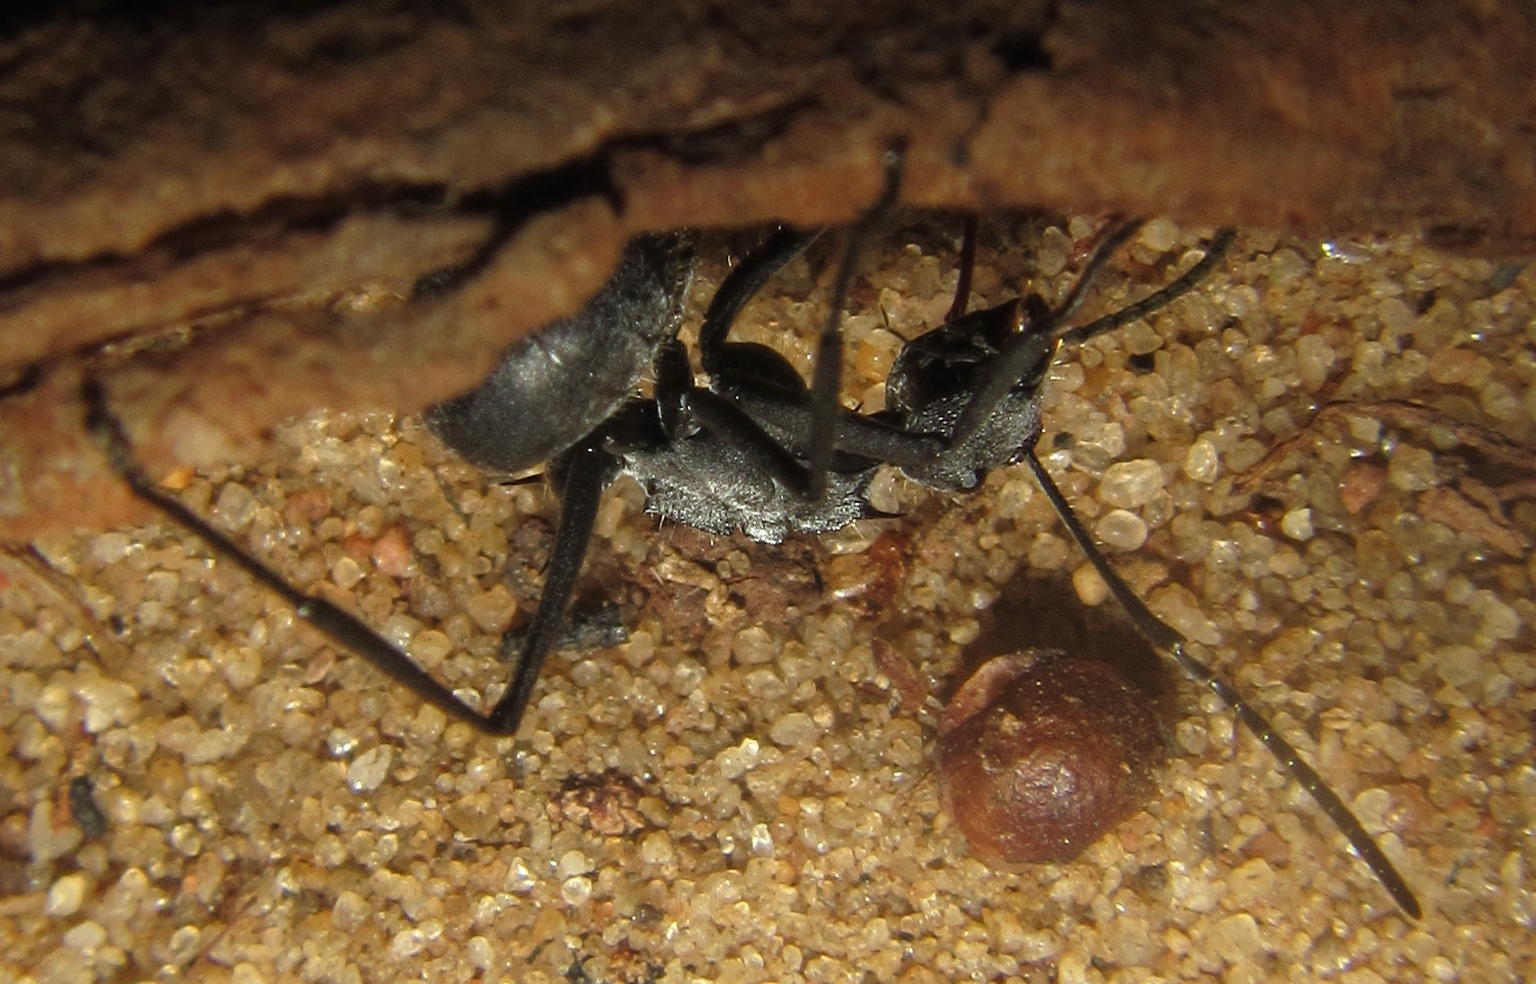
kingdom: Animalia
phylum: Arthropoda
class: Insecta
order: Hymenoptera
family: Formicidae
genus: Polyrhachis
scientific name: Polyrhachis schistacea
